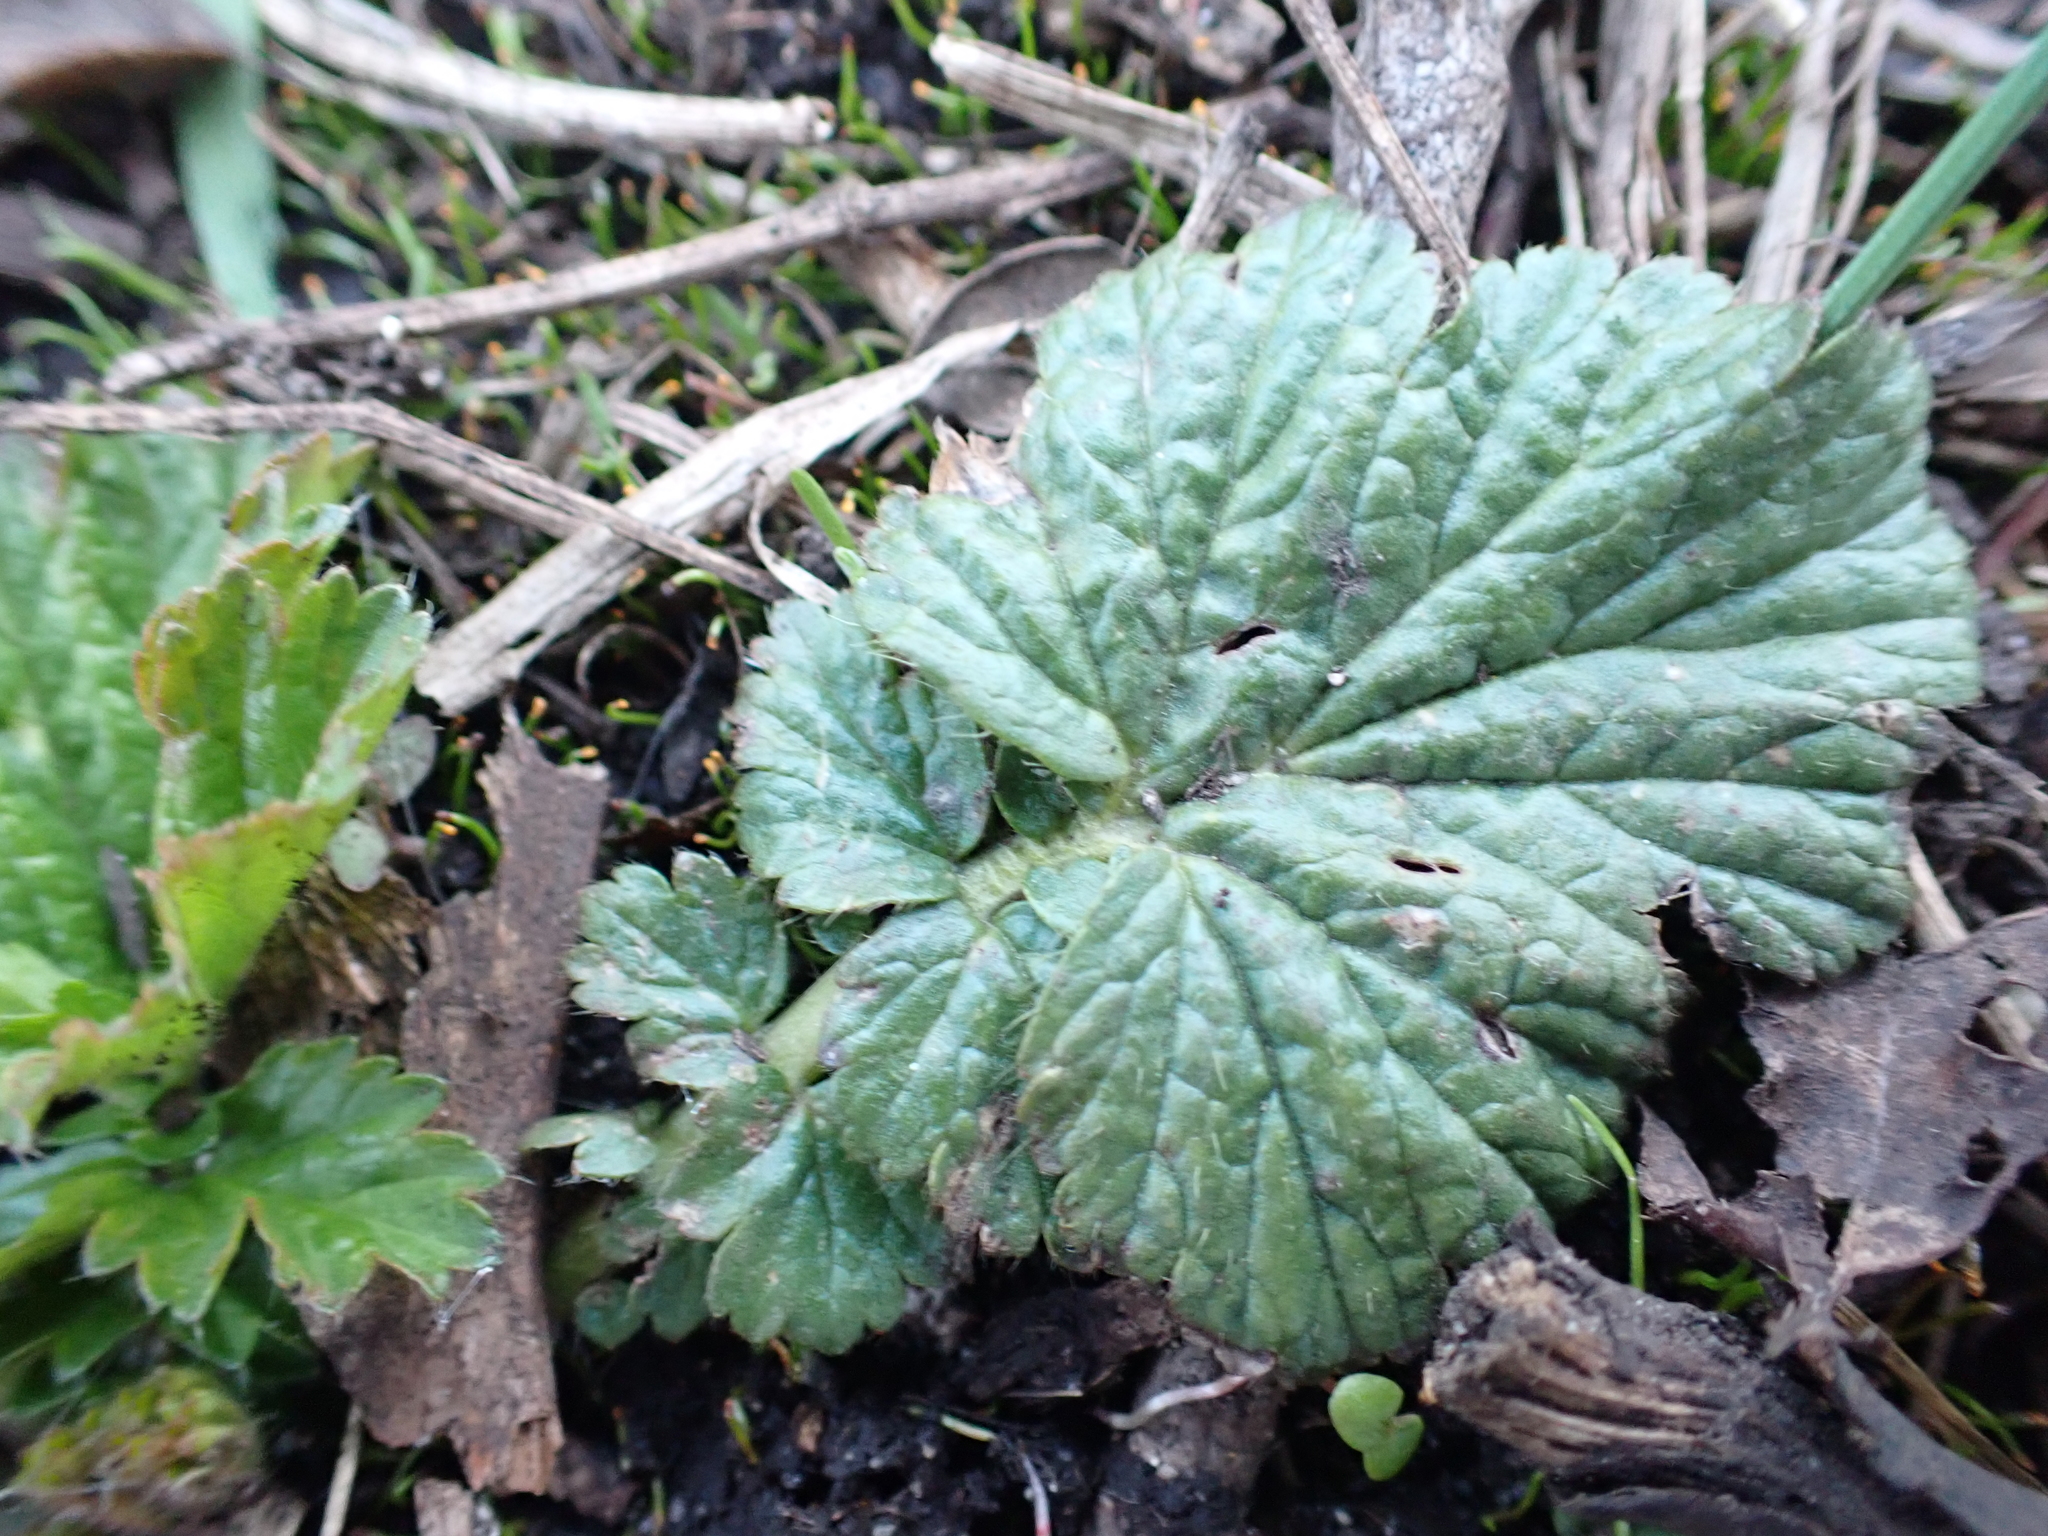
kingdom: Plantae
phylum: Tracheophyta
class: Magnoliopsida
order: Rosales
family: Rosaceae
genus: Geum
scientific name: Geum macrophyllum
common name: Large-leaved avens
